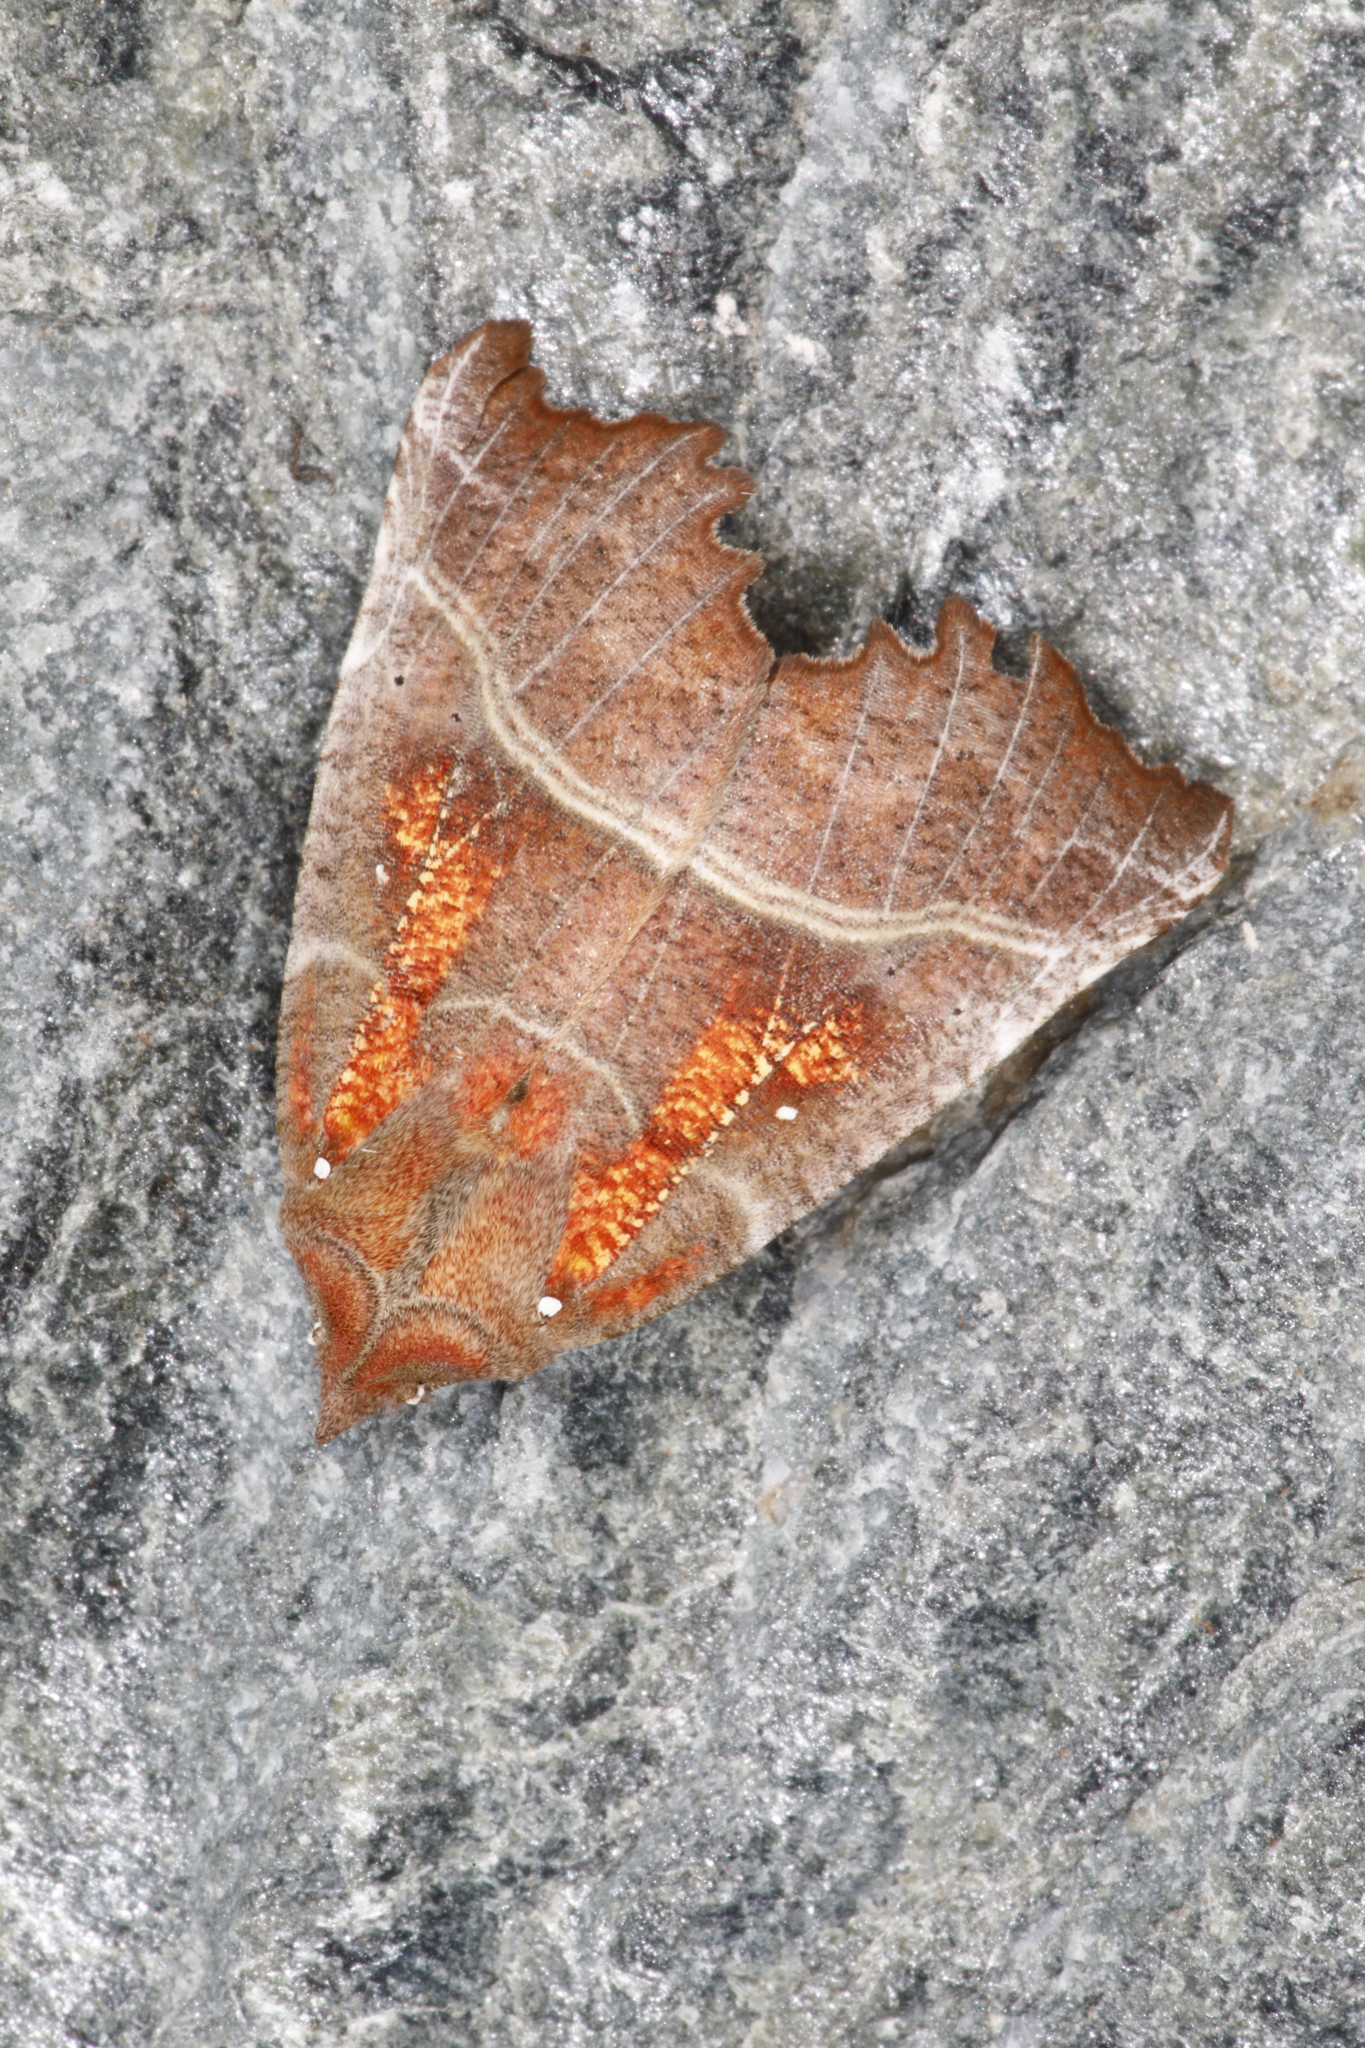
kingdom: Animalia
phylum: Arthropoda
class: Insecta
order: Lepidoptera
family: Erebidae
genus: Scoliopteryx
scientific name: Scoliopteryx libatrix
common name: Herald
